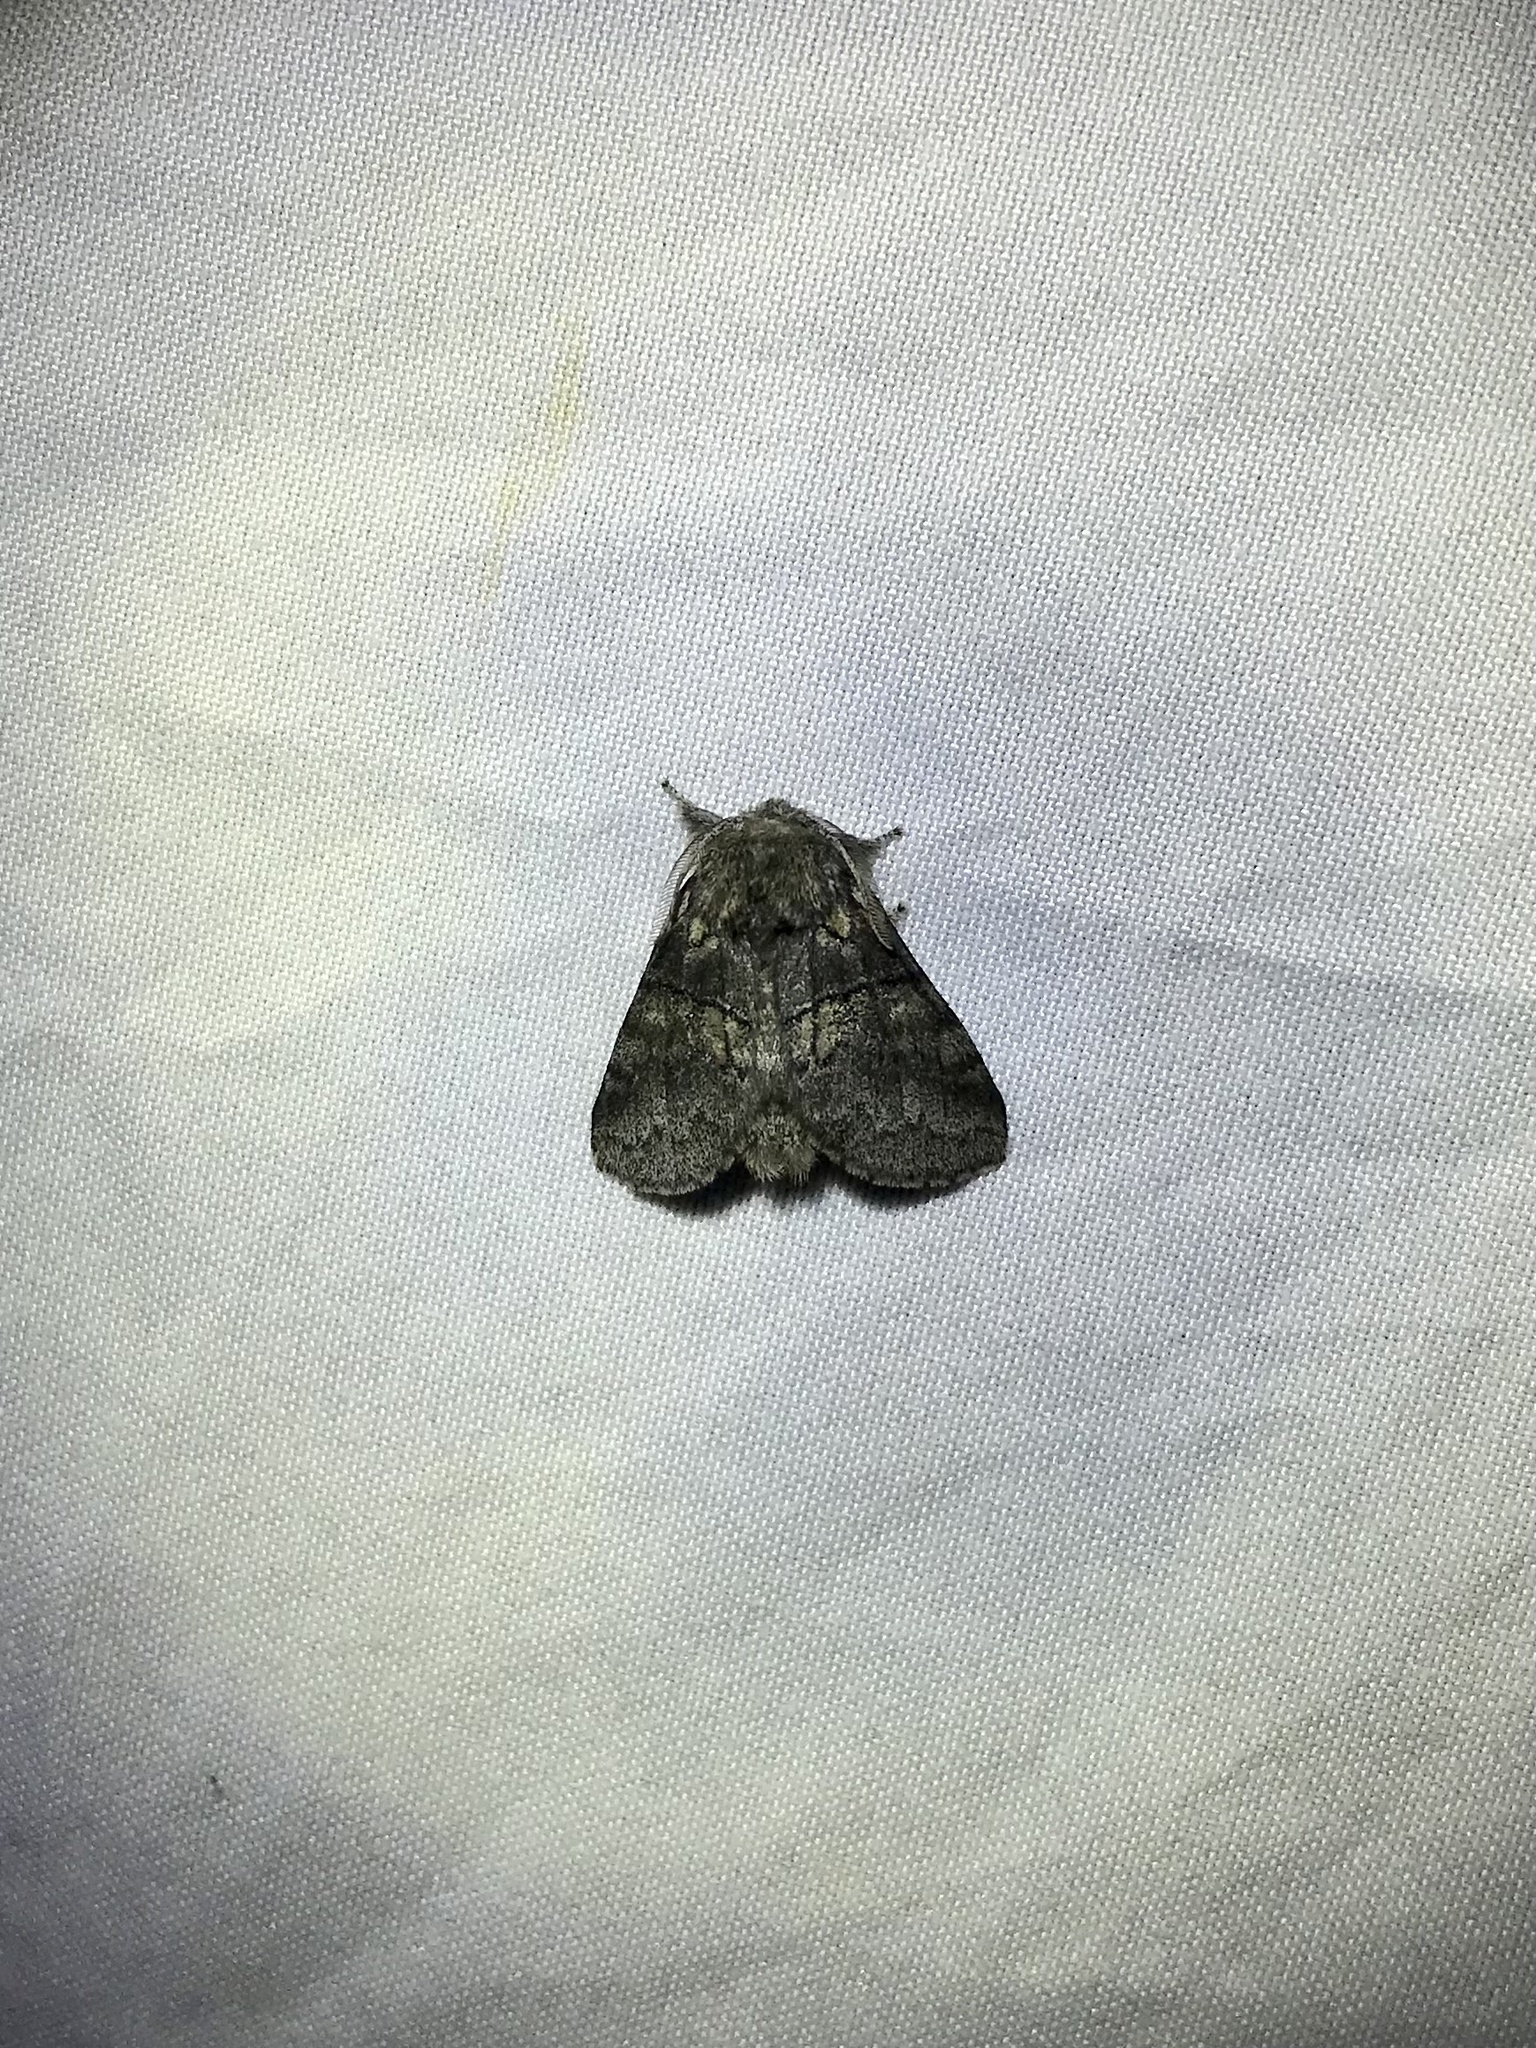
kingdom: Animalia
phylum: Arthropoda
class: Insecta
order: Lepidoptera
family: Notodontidae
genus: Gluphisia
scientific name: Gluphisia septentrionis
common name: Common gluphisia
